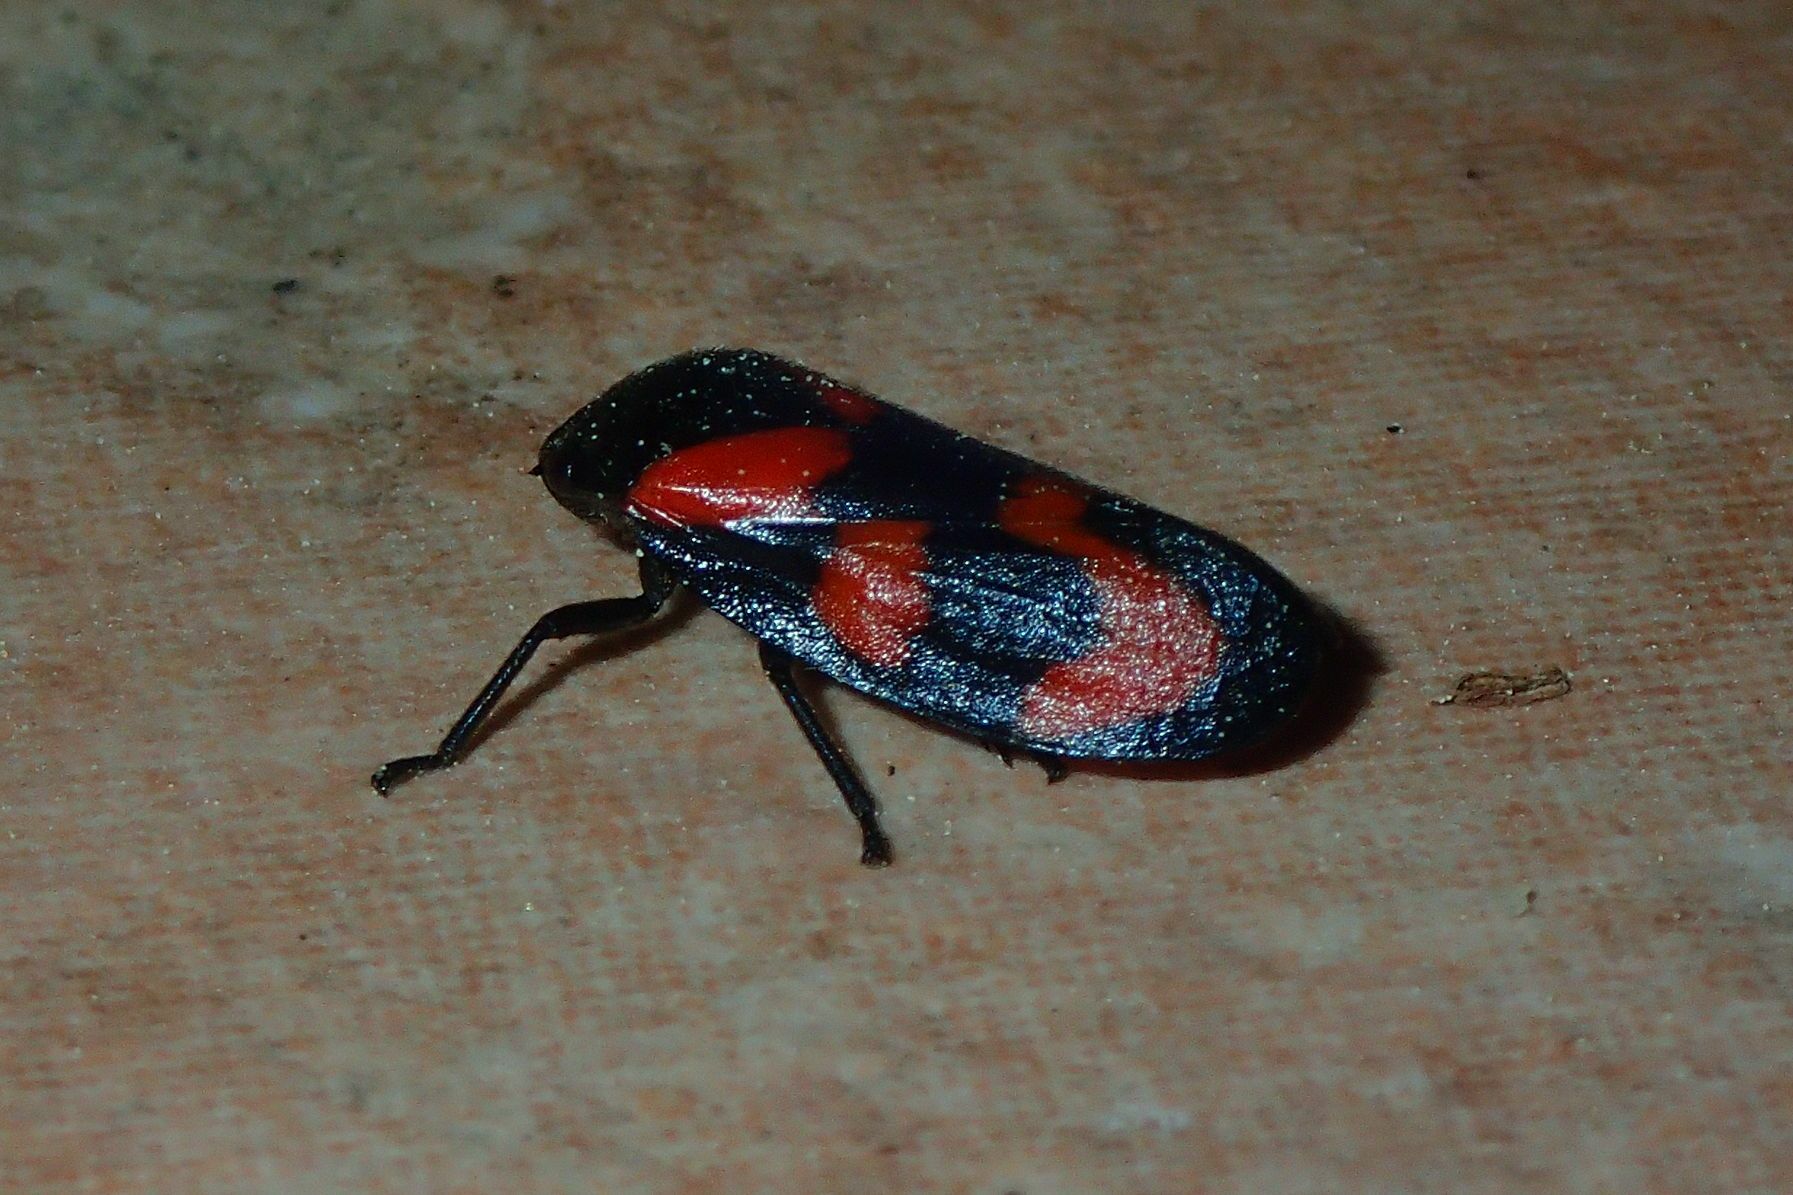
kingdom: Animalia
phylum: Arthropoda
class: Insecta
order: Hemiptera
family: Cercopidae
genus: Cercopis
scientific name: Cercopis vulnerata
